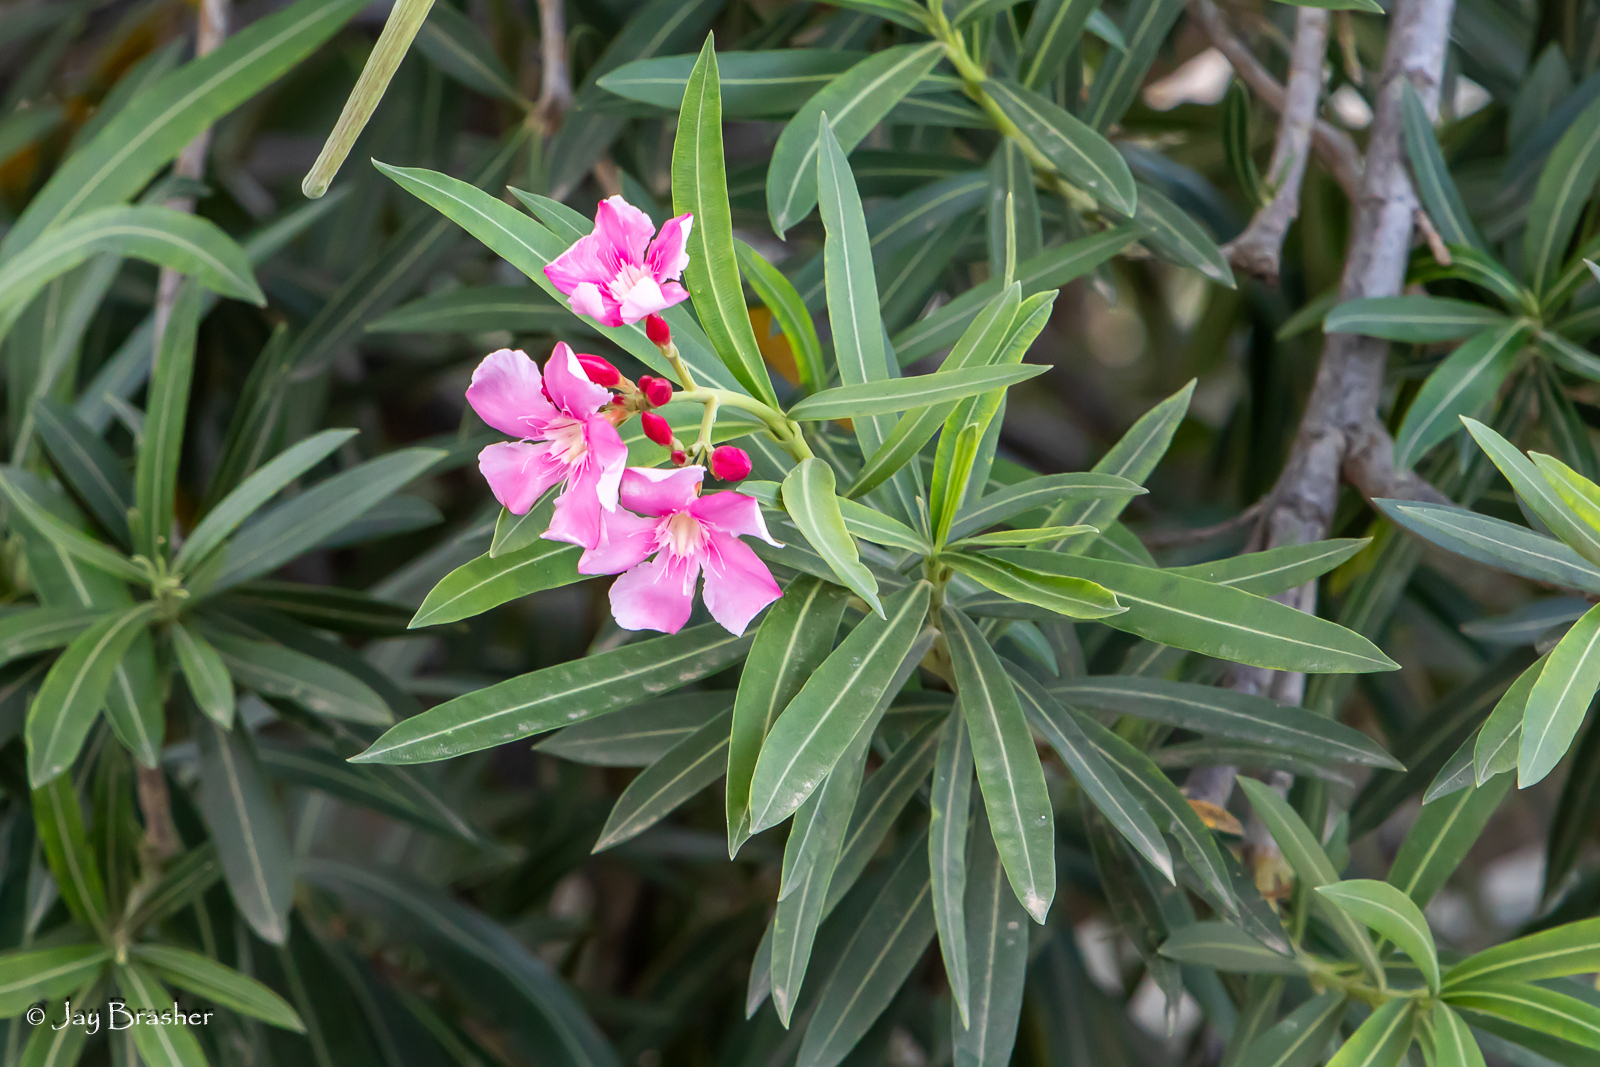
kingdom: Plantae
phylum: Tracheophyta
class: Magnoliopsida
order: Gentianales
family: Apocynaceae
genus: Nerium
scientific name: Nerium oleander
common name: Oleander
